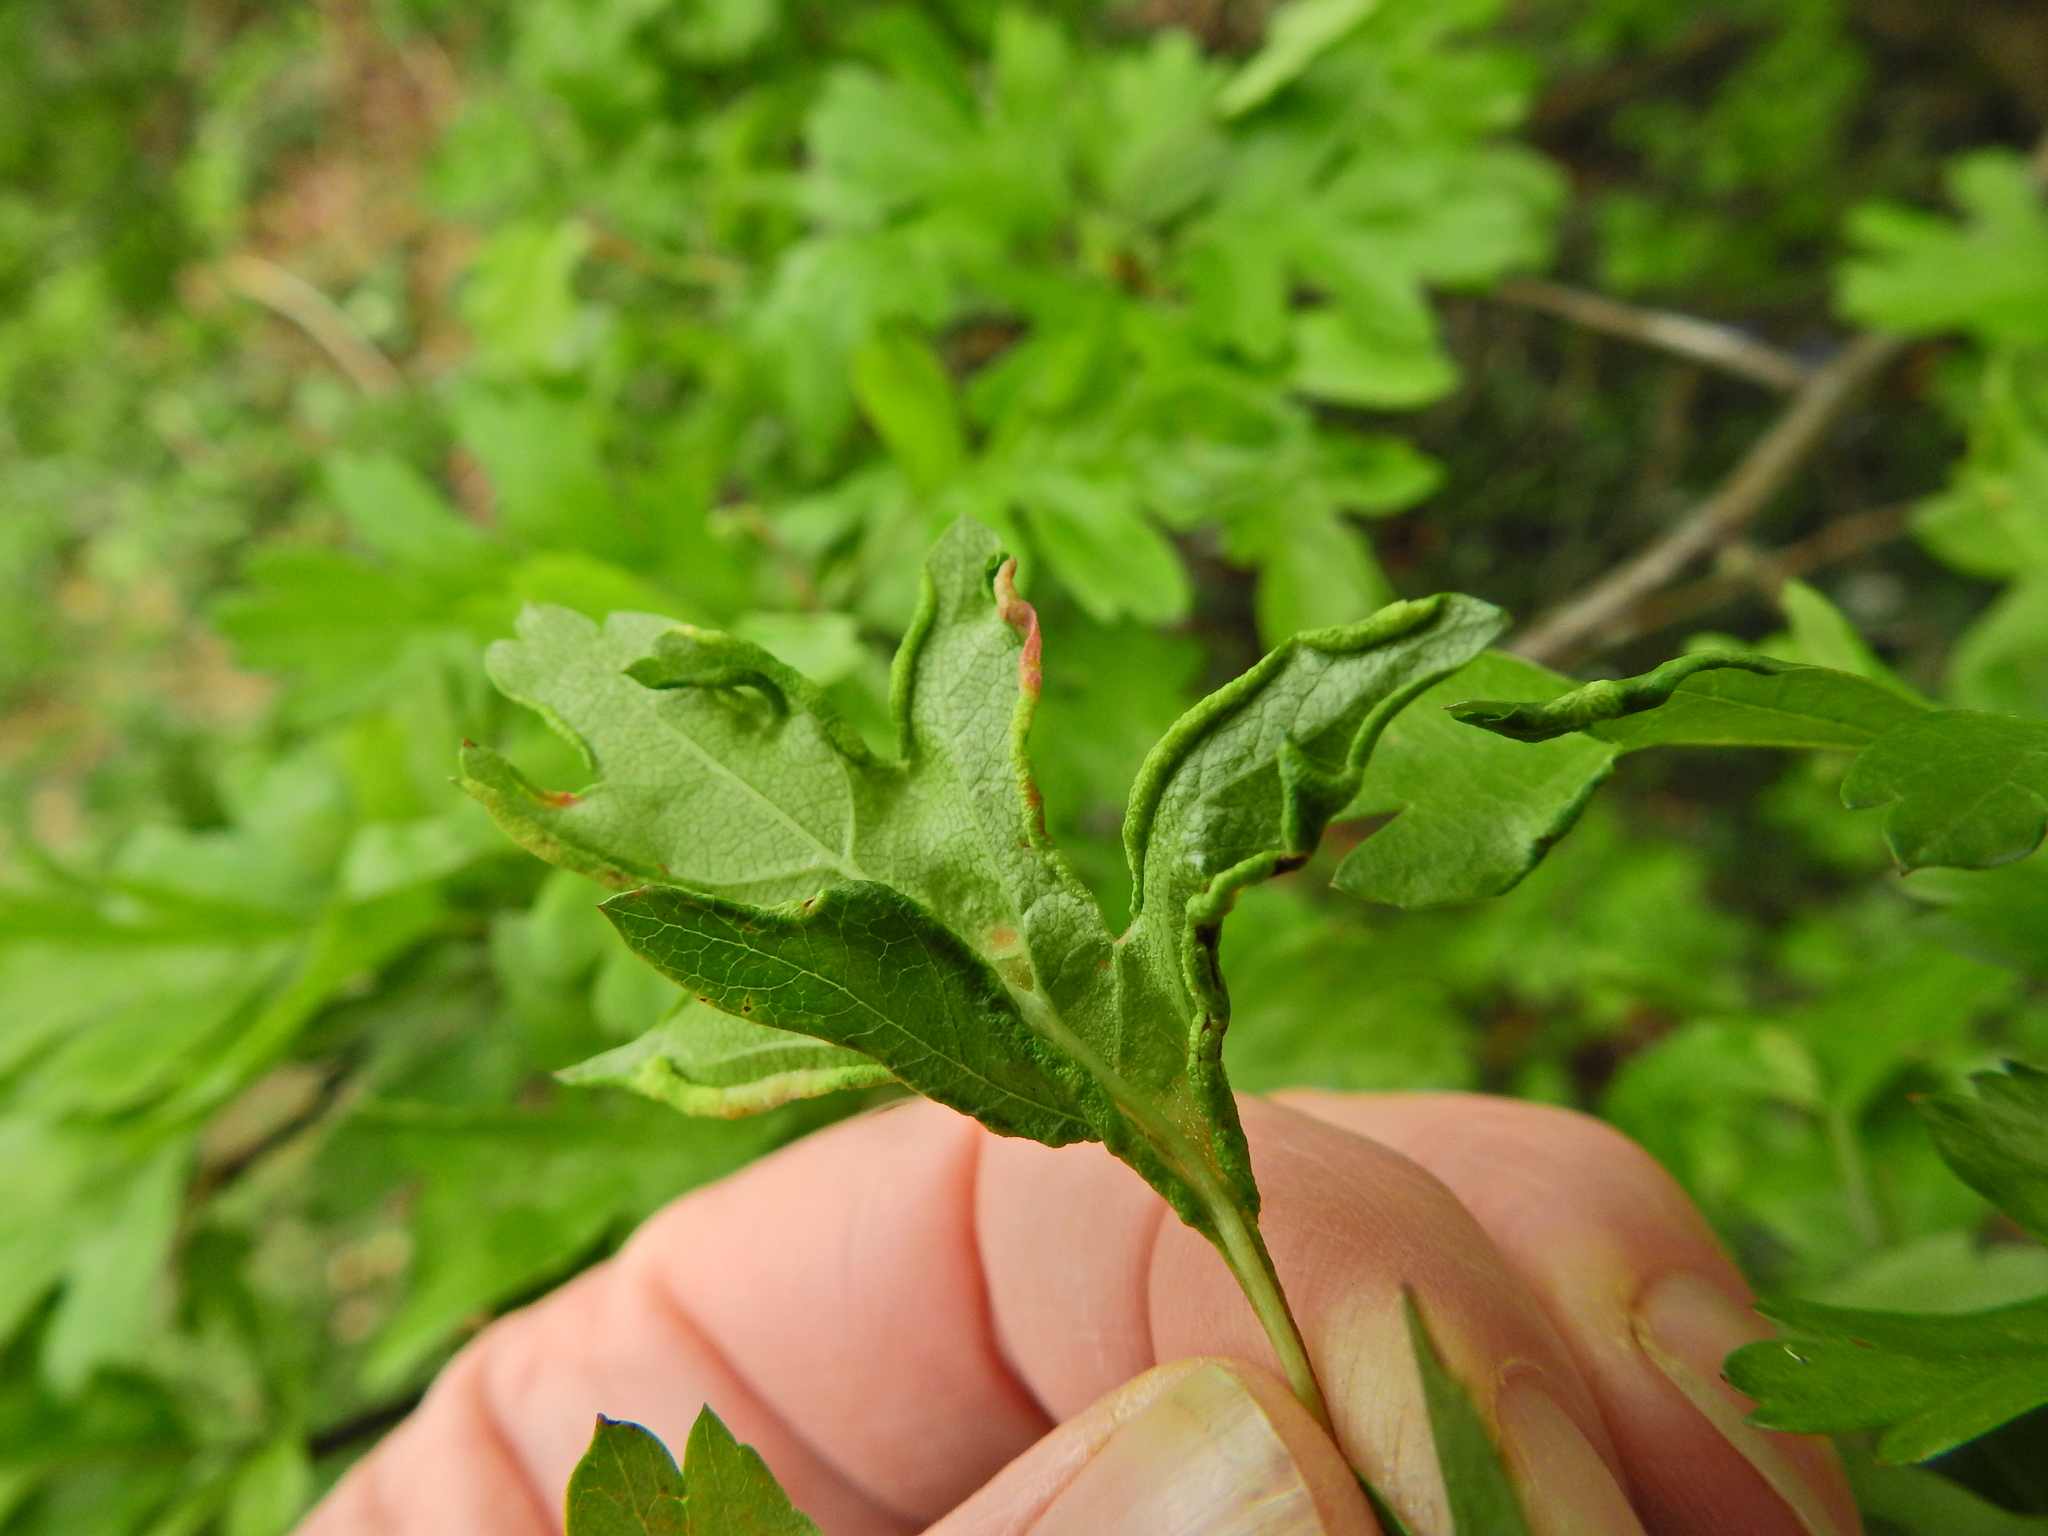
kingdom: Animalia
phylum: Arthropoda
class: Arachnida
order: Trombidiformes
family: Eriophyidae
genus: Phyllocoptes
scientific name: Phyllocoptes goniothorax
